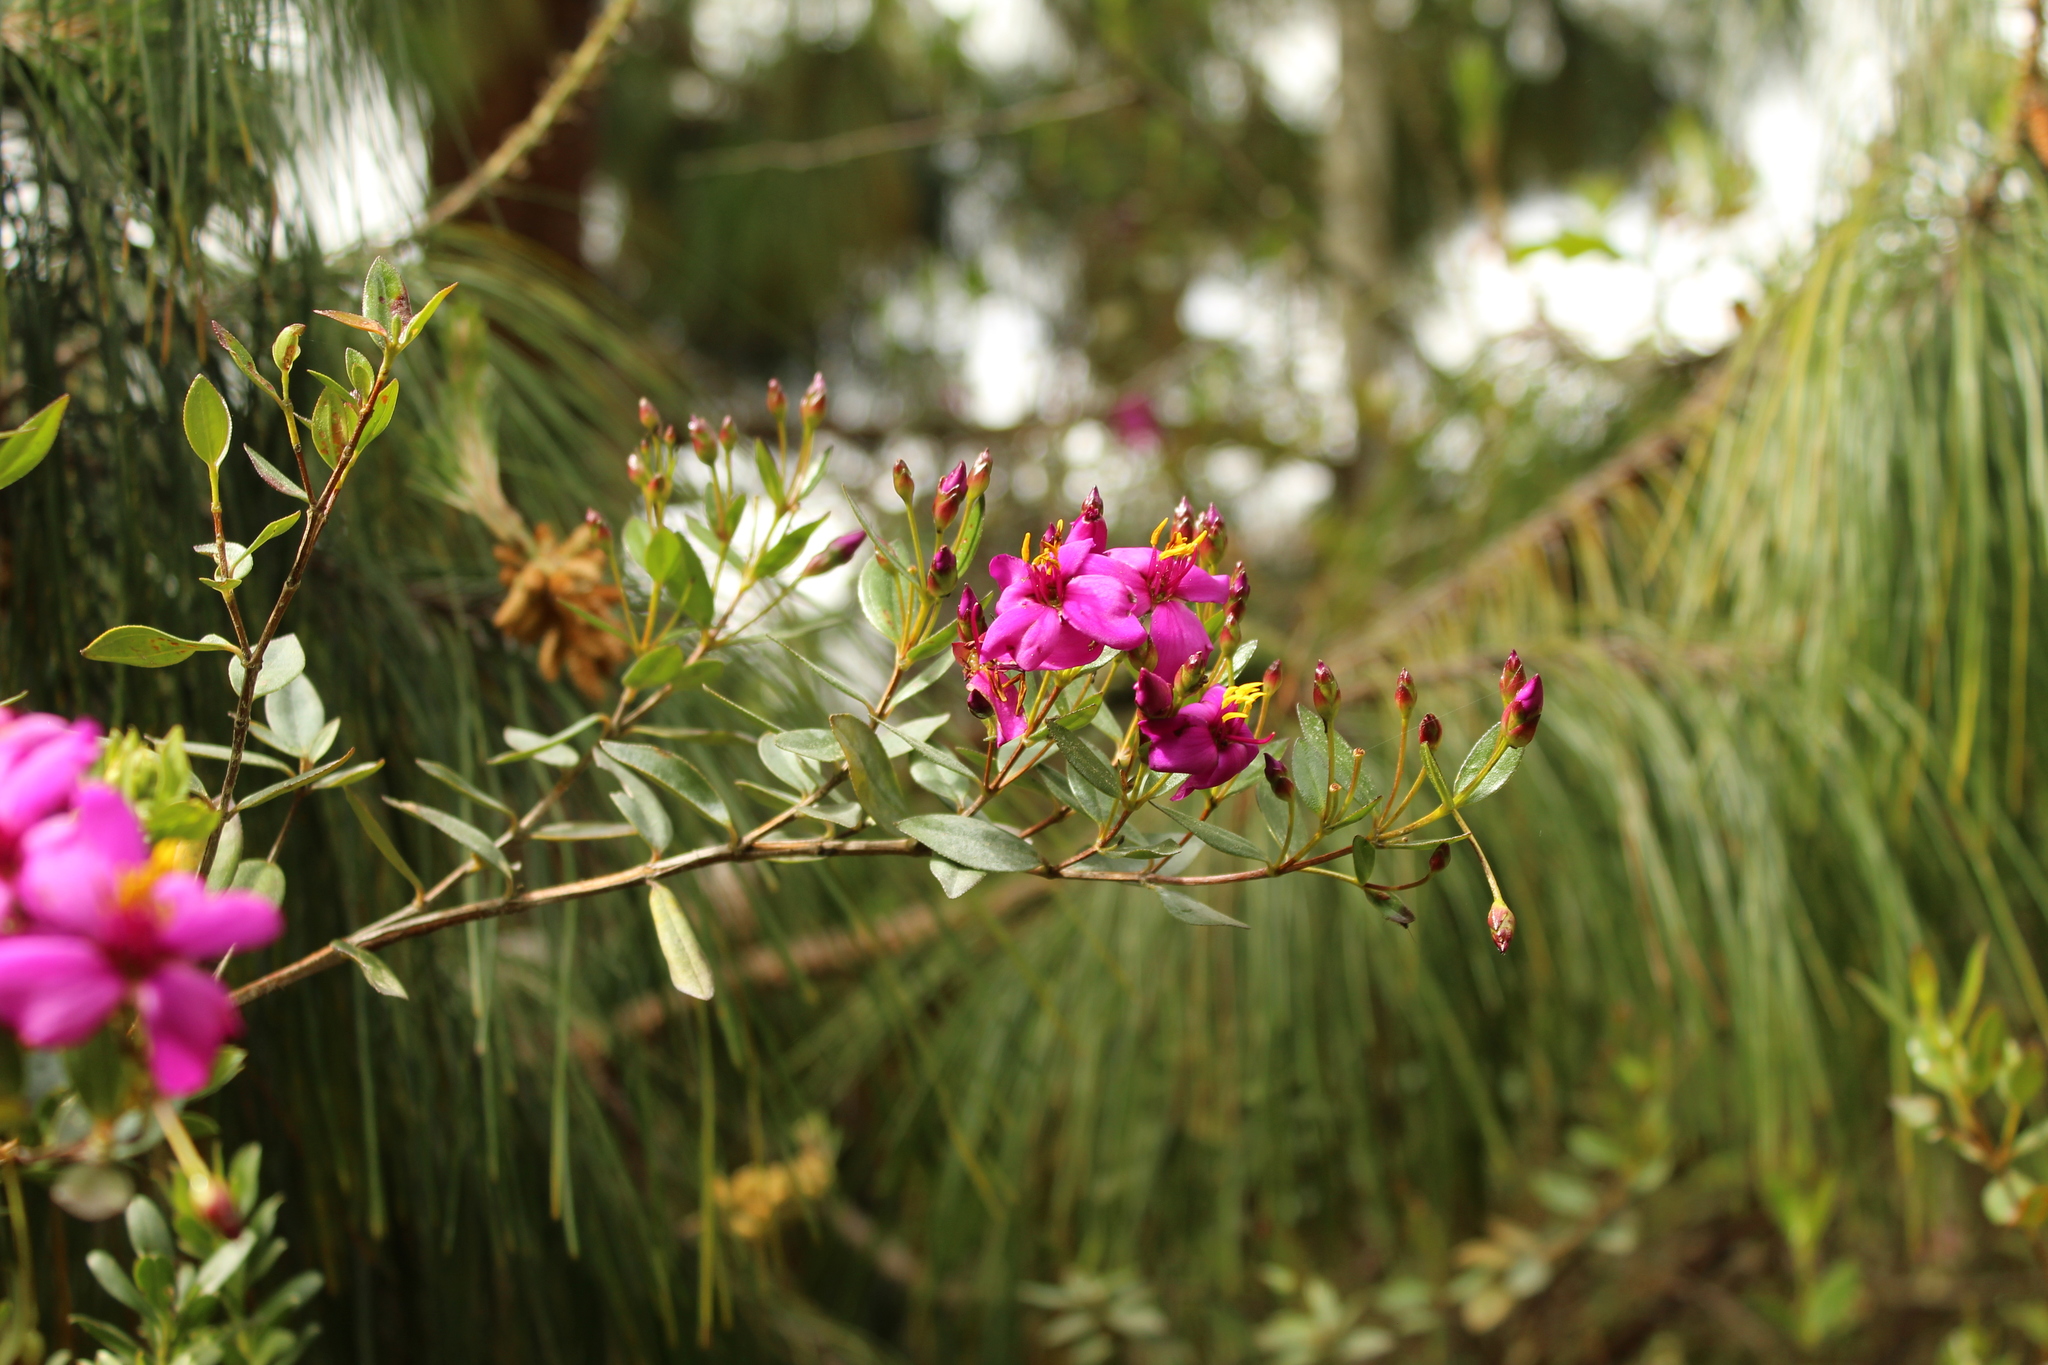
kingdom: Plantae
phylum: Tracheophyta
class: Magnoliopsida
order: Myrtales
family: Melastomataceae
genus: Bucquetia
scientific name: Bucquetia glutinosa
